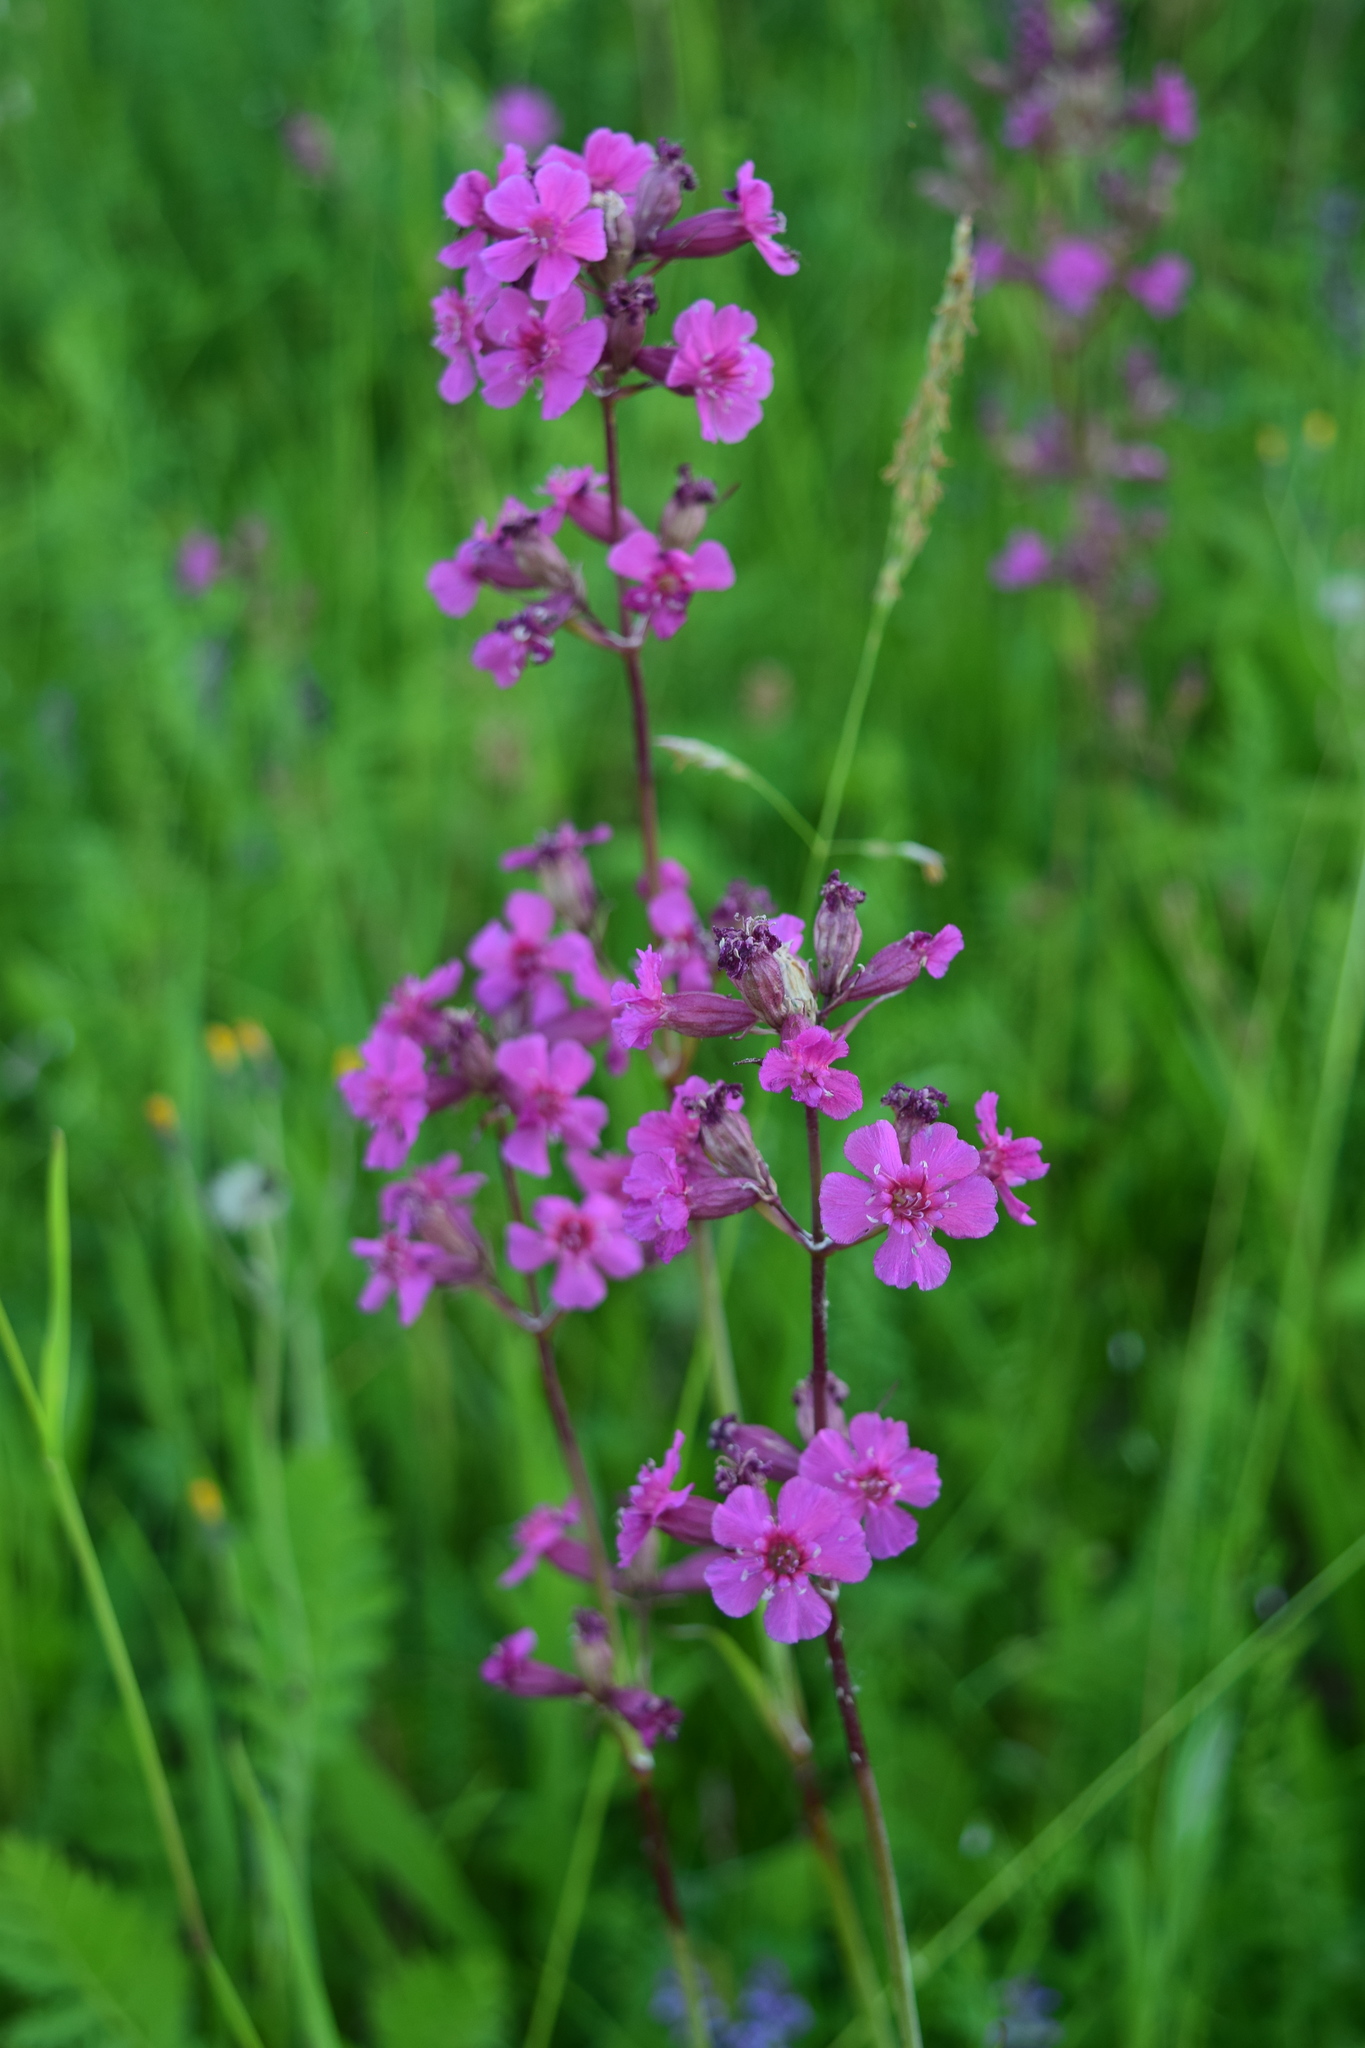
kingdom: Plantae
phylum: Tracheophyta
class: Magnoliopsida
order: Caryophyllales
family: Caryophyllaceae
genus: Viscaria
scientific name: Viscaria vulgaris
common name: Clammy campion
